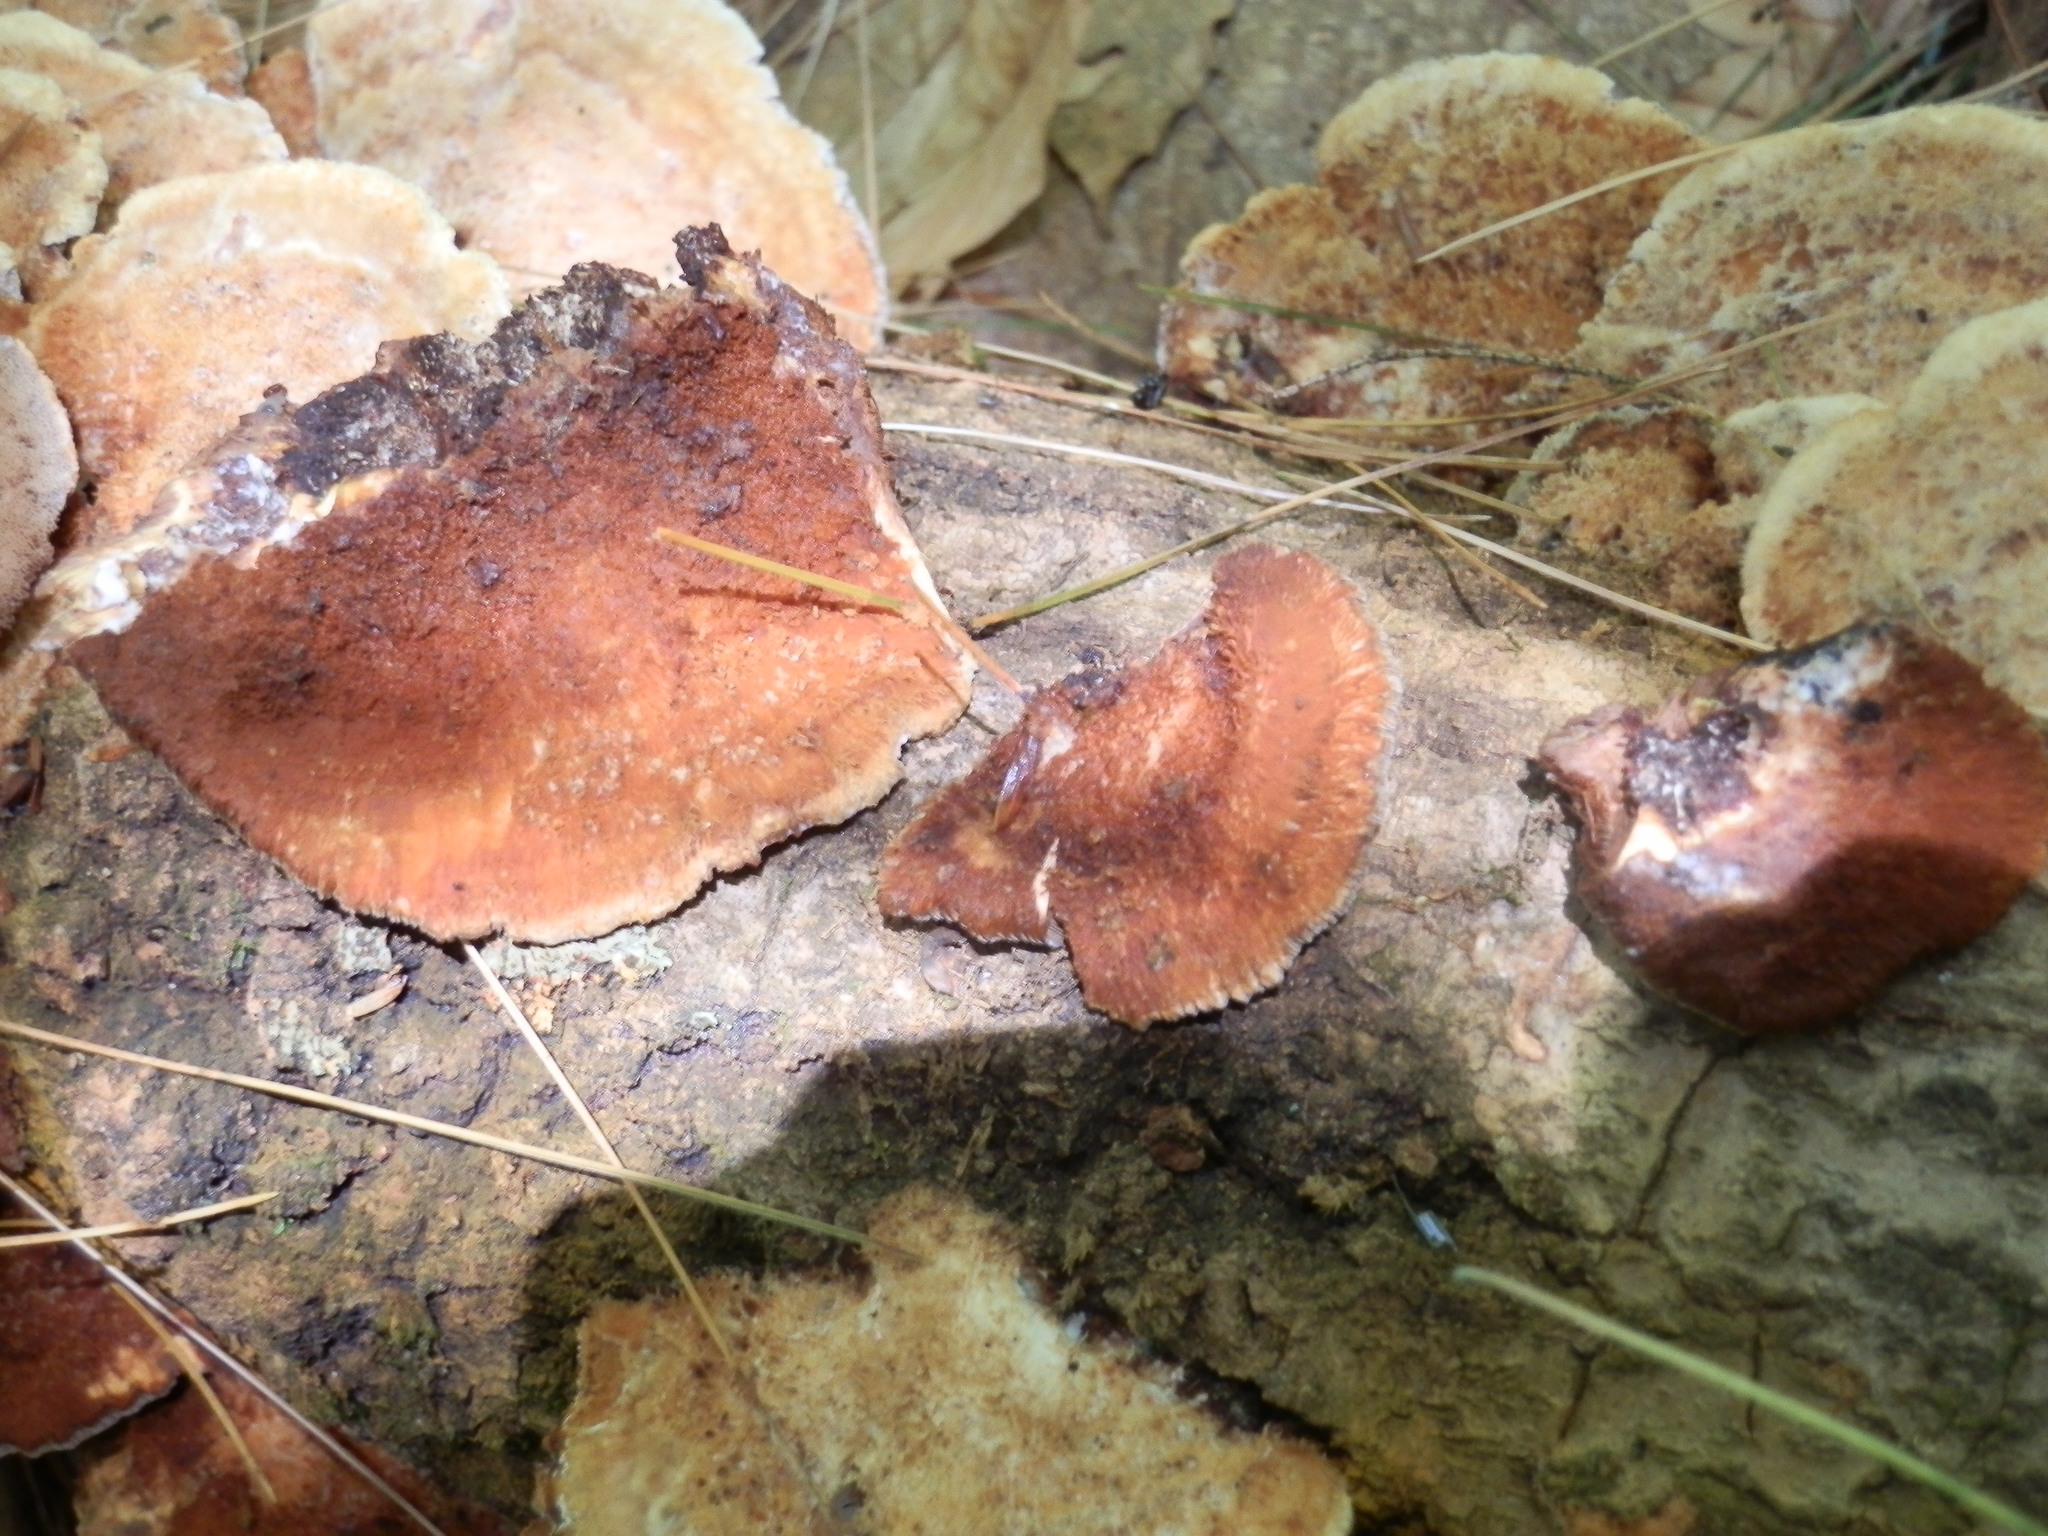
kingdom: Fungi
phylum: Basidiomycota
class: Agaricomycetes
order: Polyporales
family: Polyporaceae
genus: Trametes
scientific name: Trametes cinnabarina
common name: Northern cinnabar polypore
